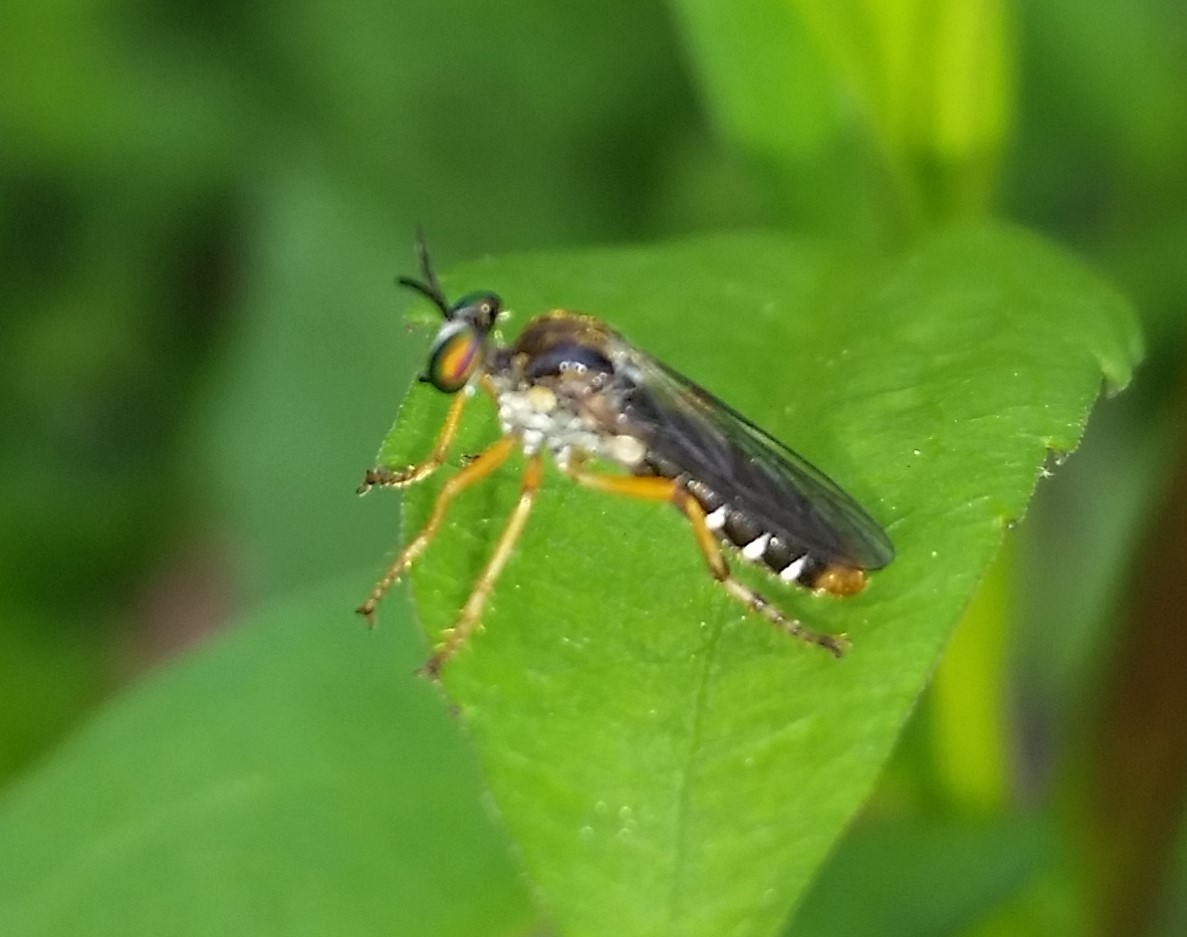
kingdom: Animalia
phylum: Arthropoda
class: Insecta
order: Diptera
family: Asilidae
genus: Taracticus
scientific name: Taracticus octopunctatus
